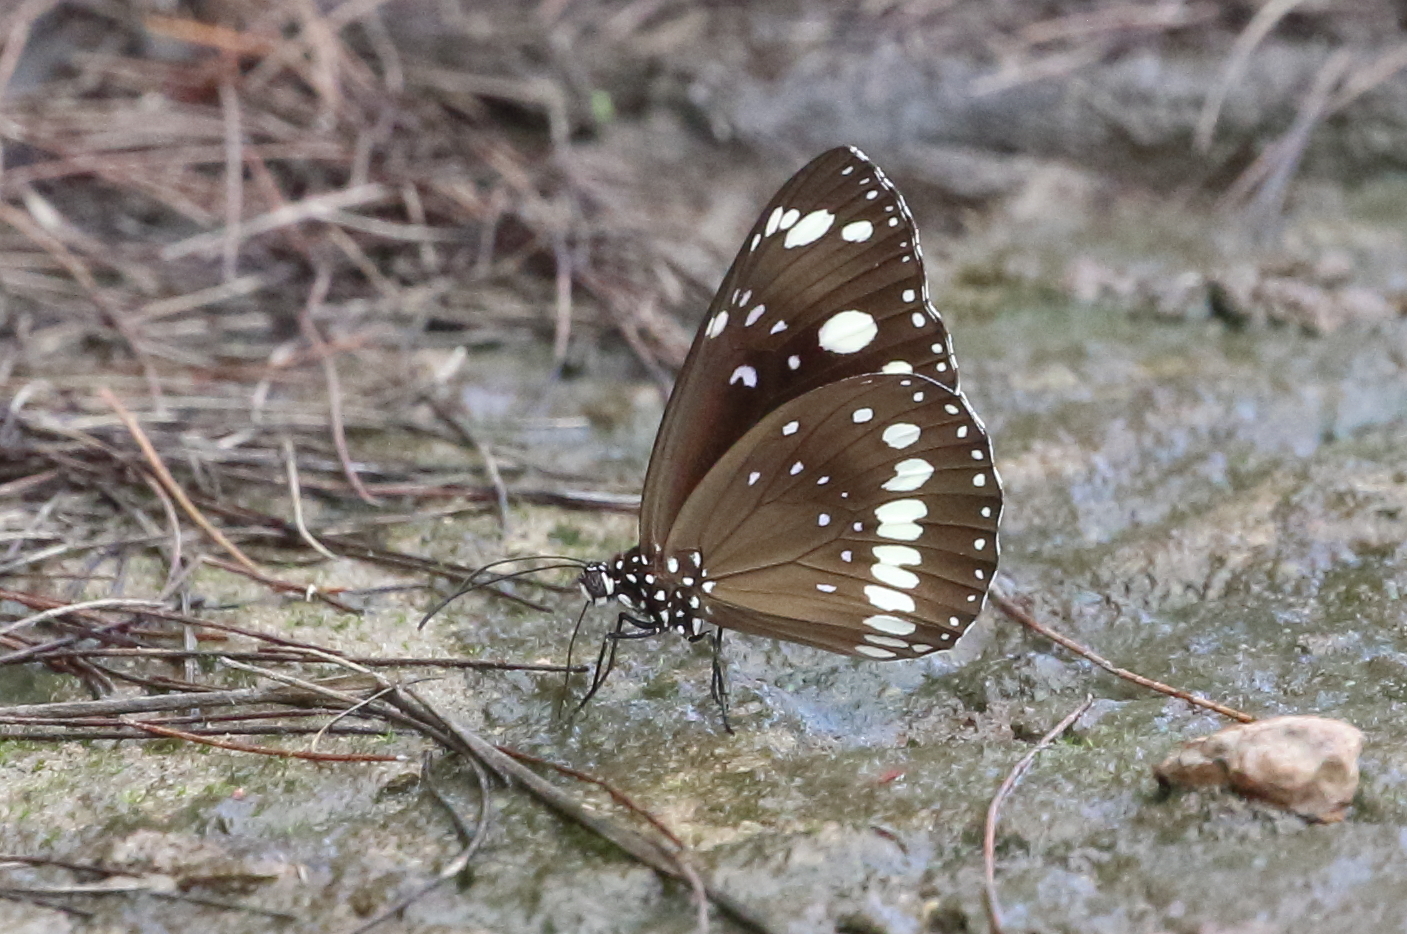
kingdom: Animalia
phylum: Arthropoda
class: Insecta
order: Lepidoptera
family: Nymphalidae
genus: Euploea
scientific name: Euploea core
